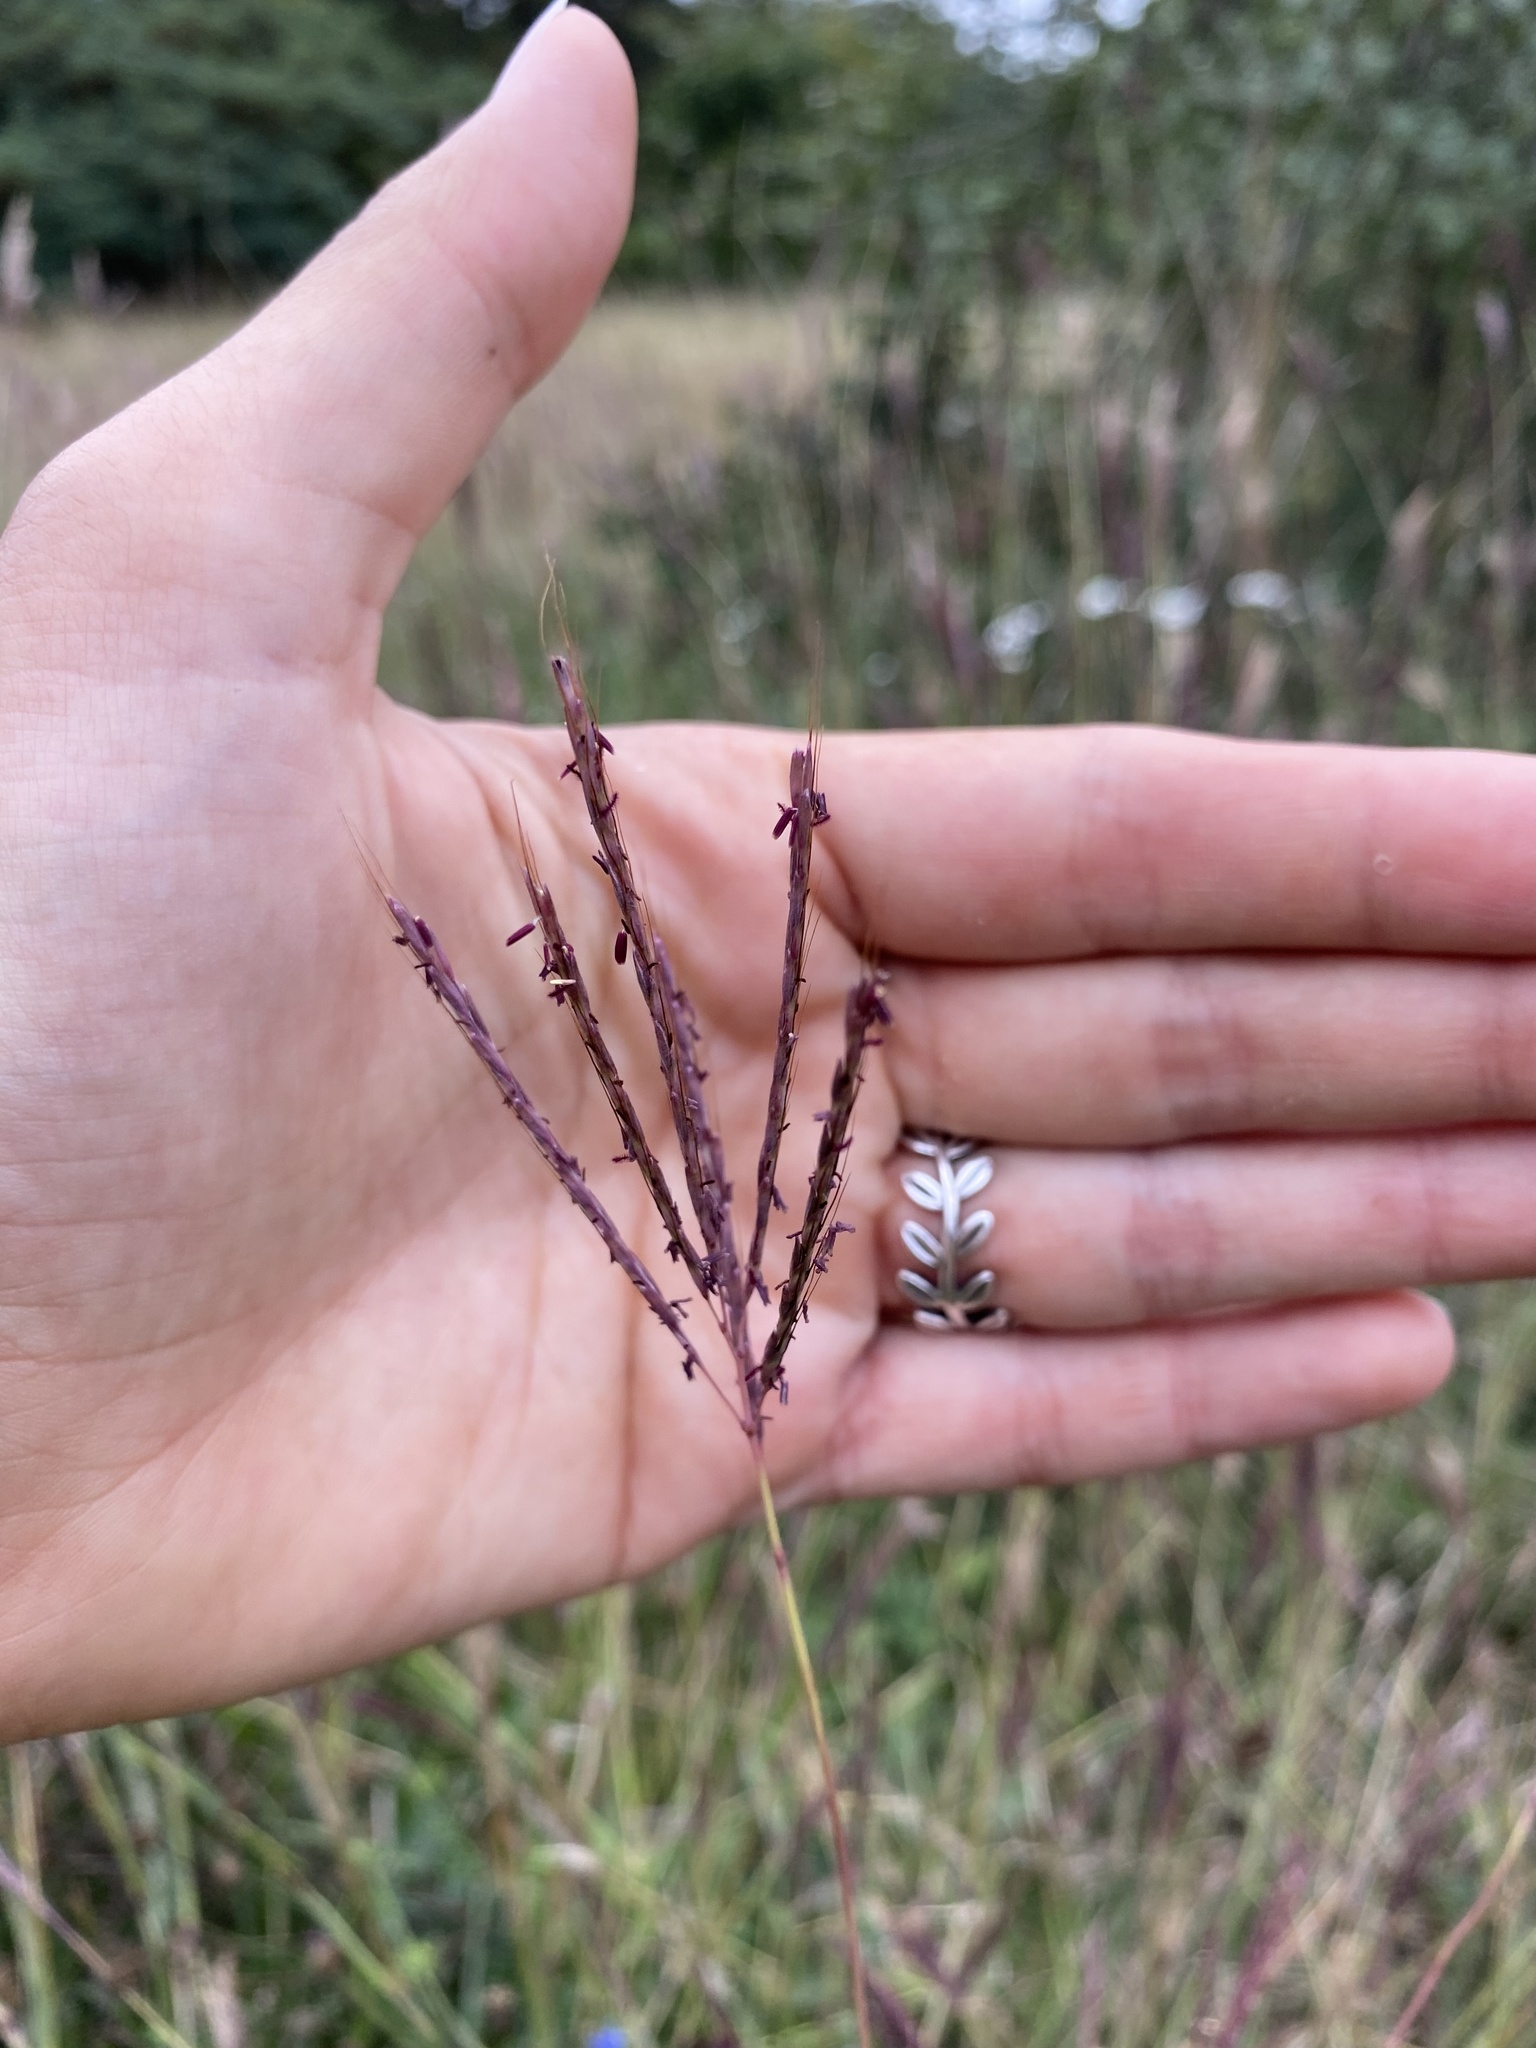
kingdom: Plantae
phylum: Tracheophyta
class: Liliopsida
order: Poales
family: Poaceae
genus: Bothriochloa
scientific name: Bothriochloa ischaemum
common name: Yellow bluestem
